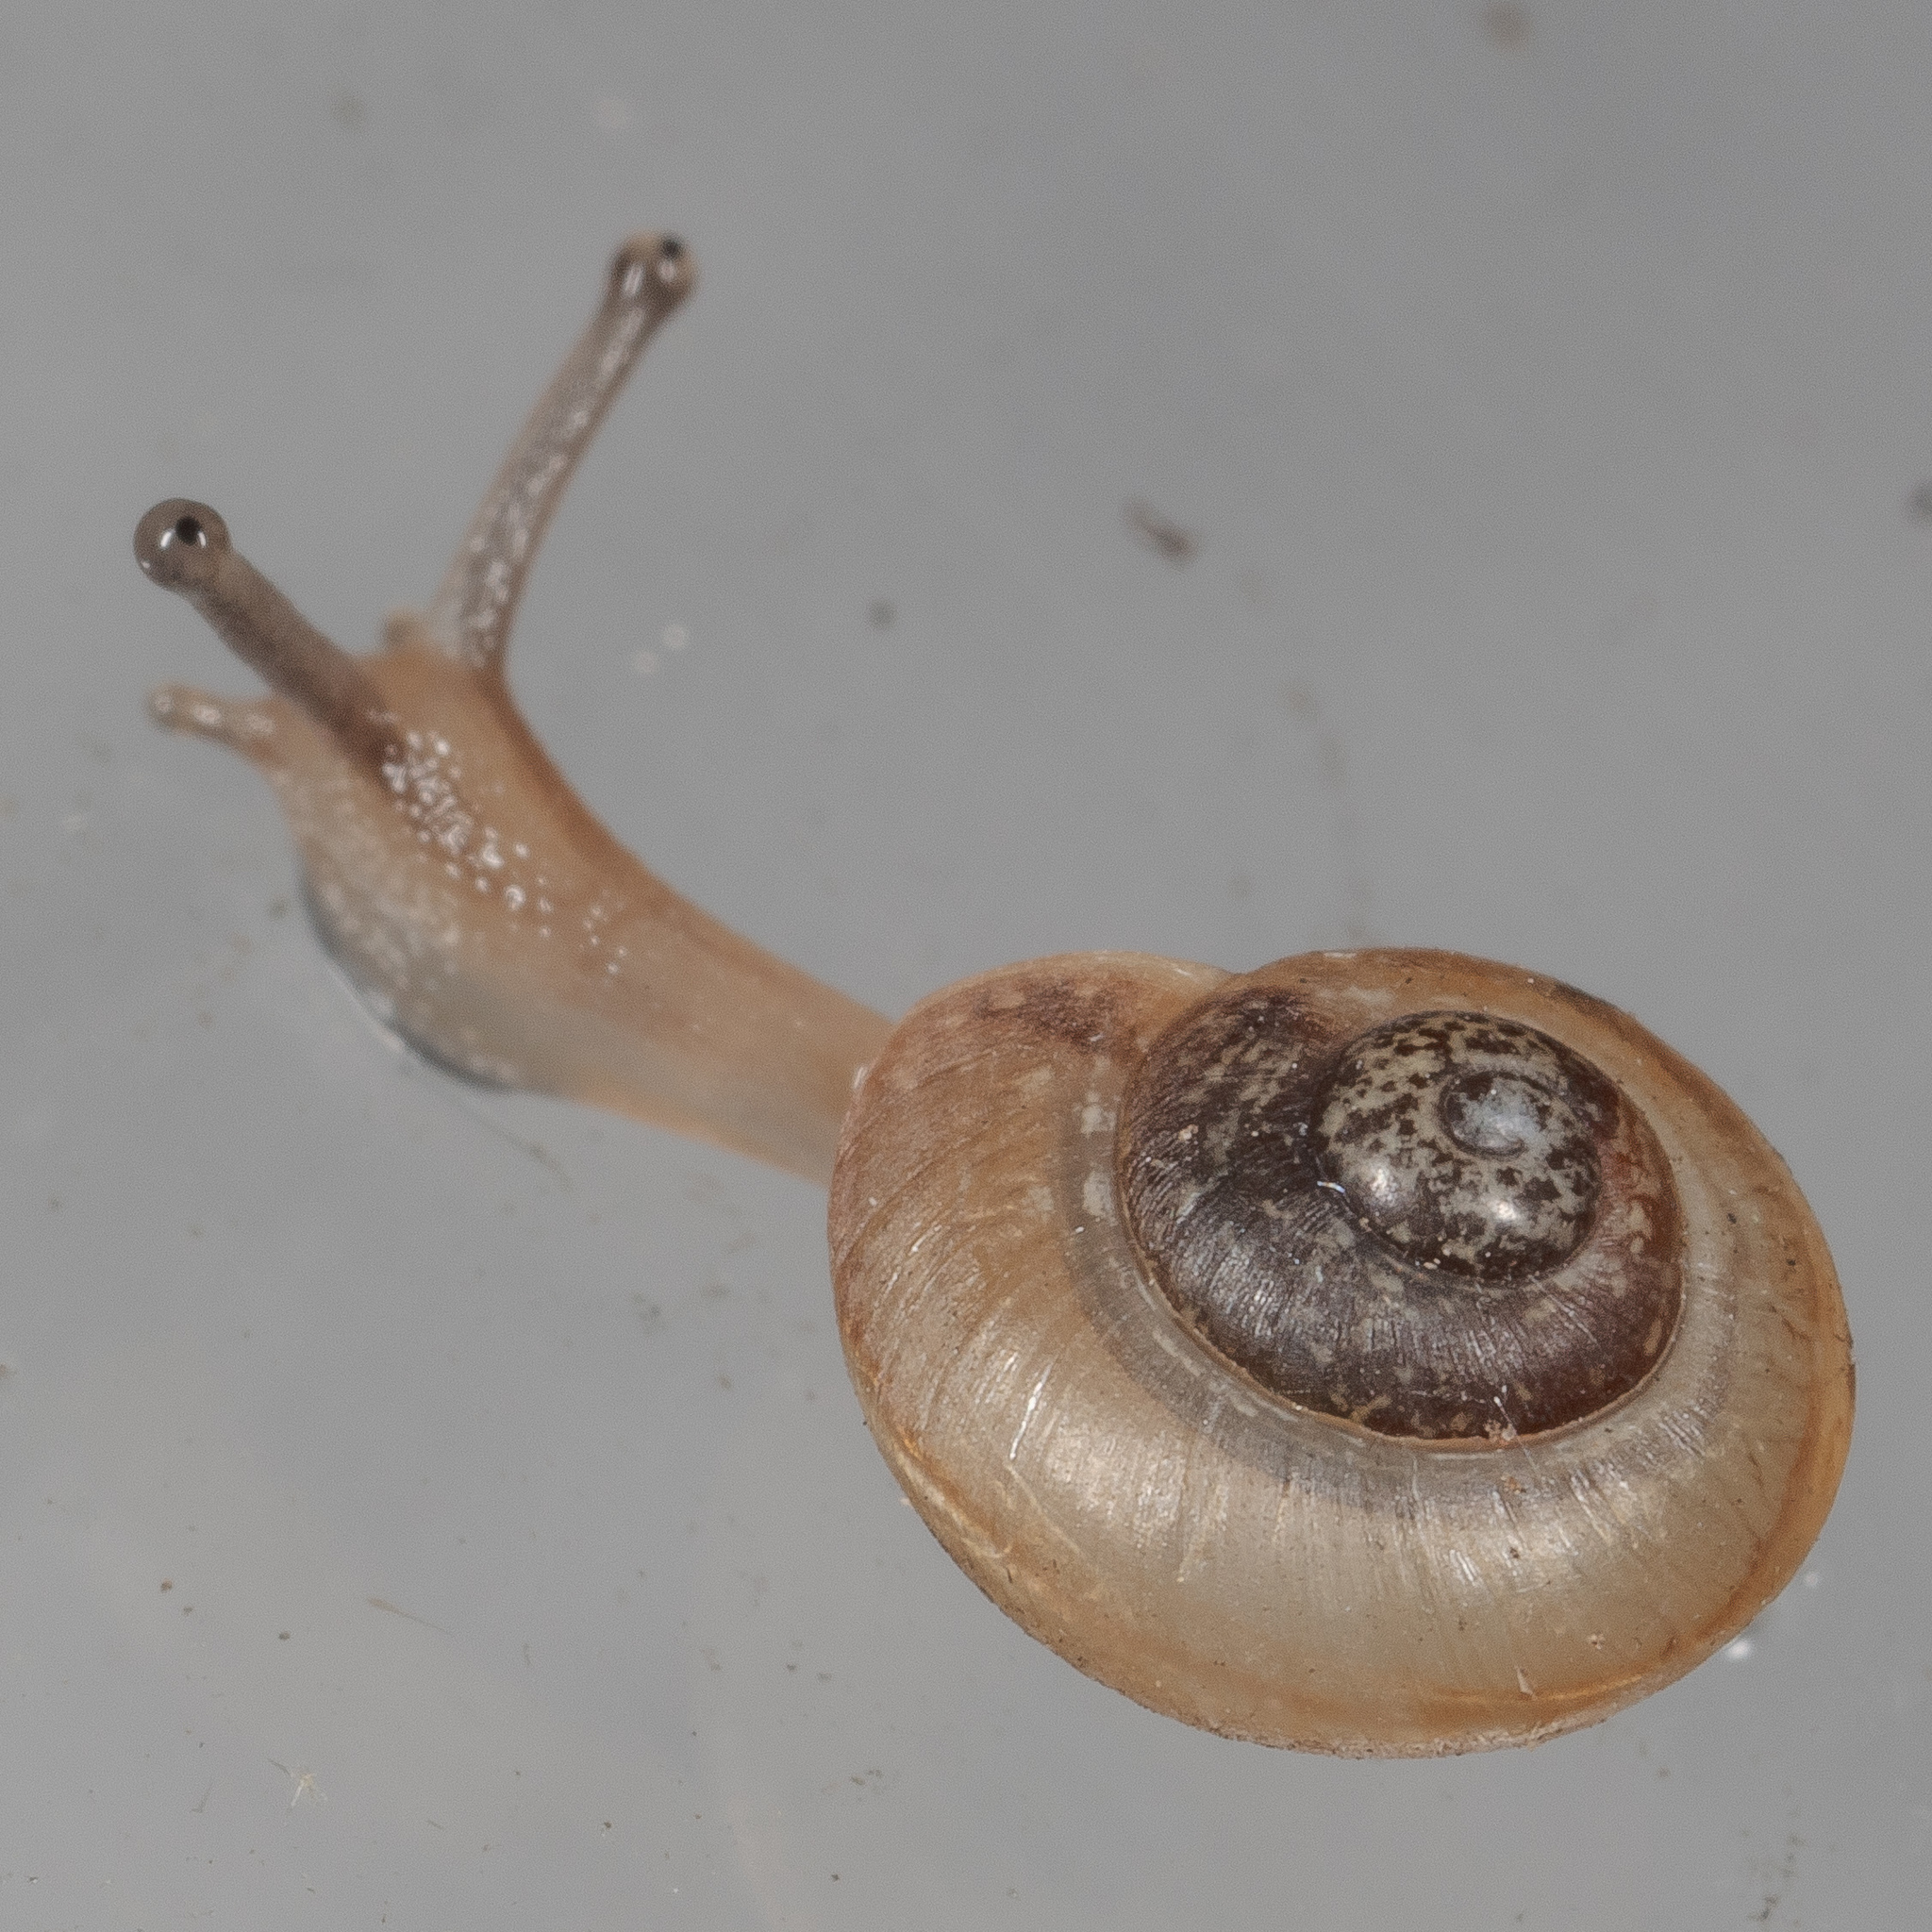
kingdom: Animalia
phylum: Mollusca
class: Gastropoda
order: Stylommatophora
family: Camaenidae
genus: Bradybaena
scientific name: Bradybaena similaris
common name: Asian trampsnail
